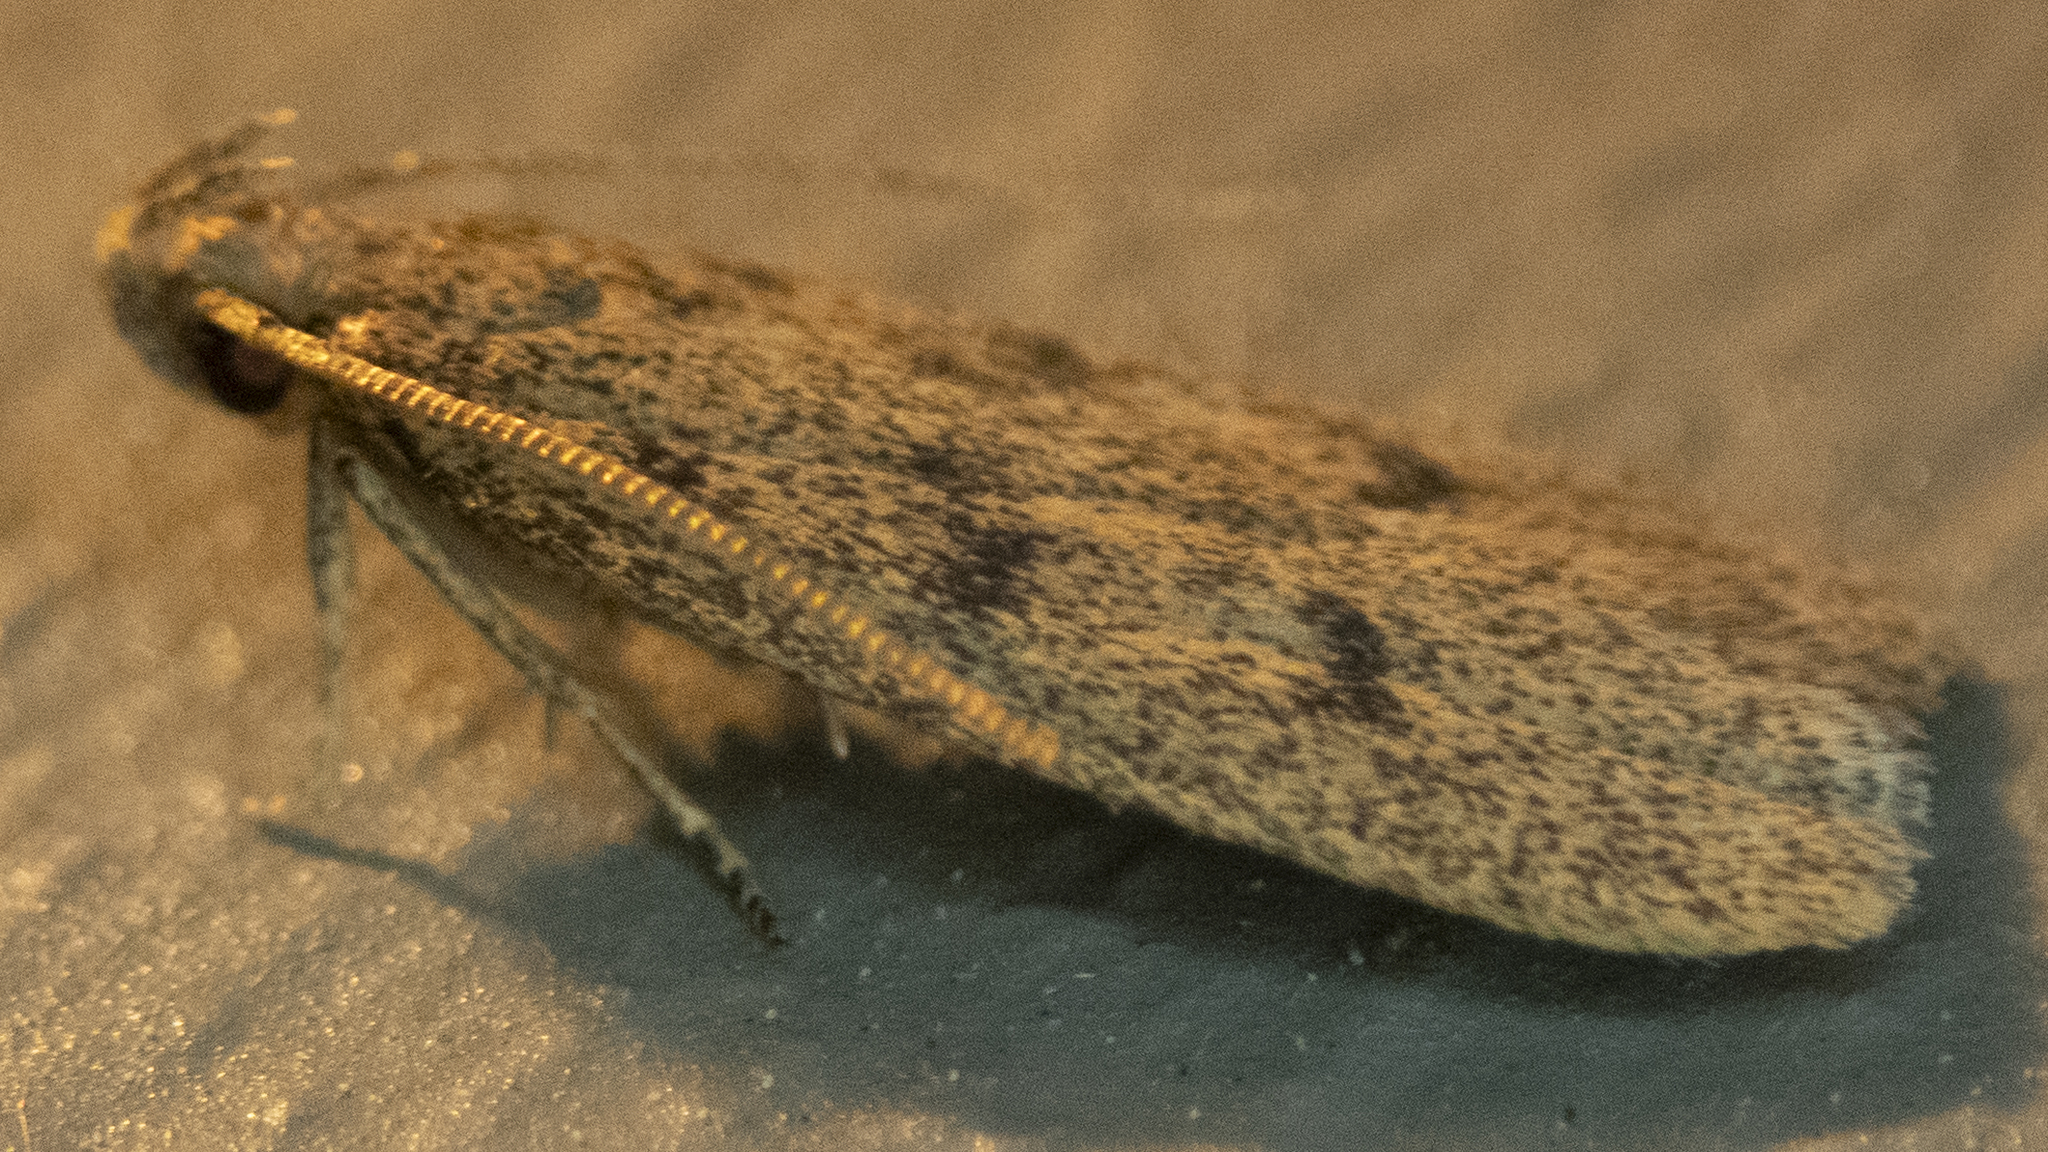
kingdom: Animalia
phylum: Arthropoda
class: Insecta
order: Lepidoptera
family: Autostichidae
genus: Glyphidocera
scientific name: Glyphidocera septentrionella
